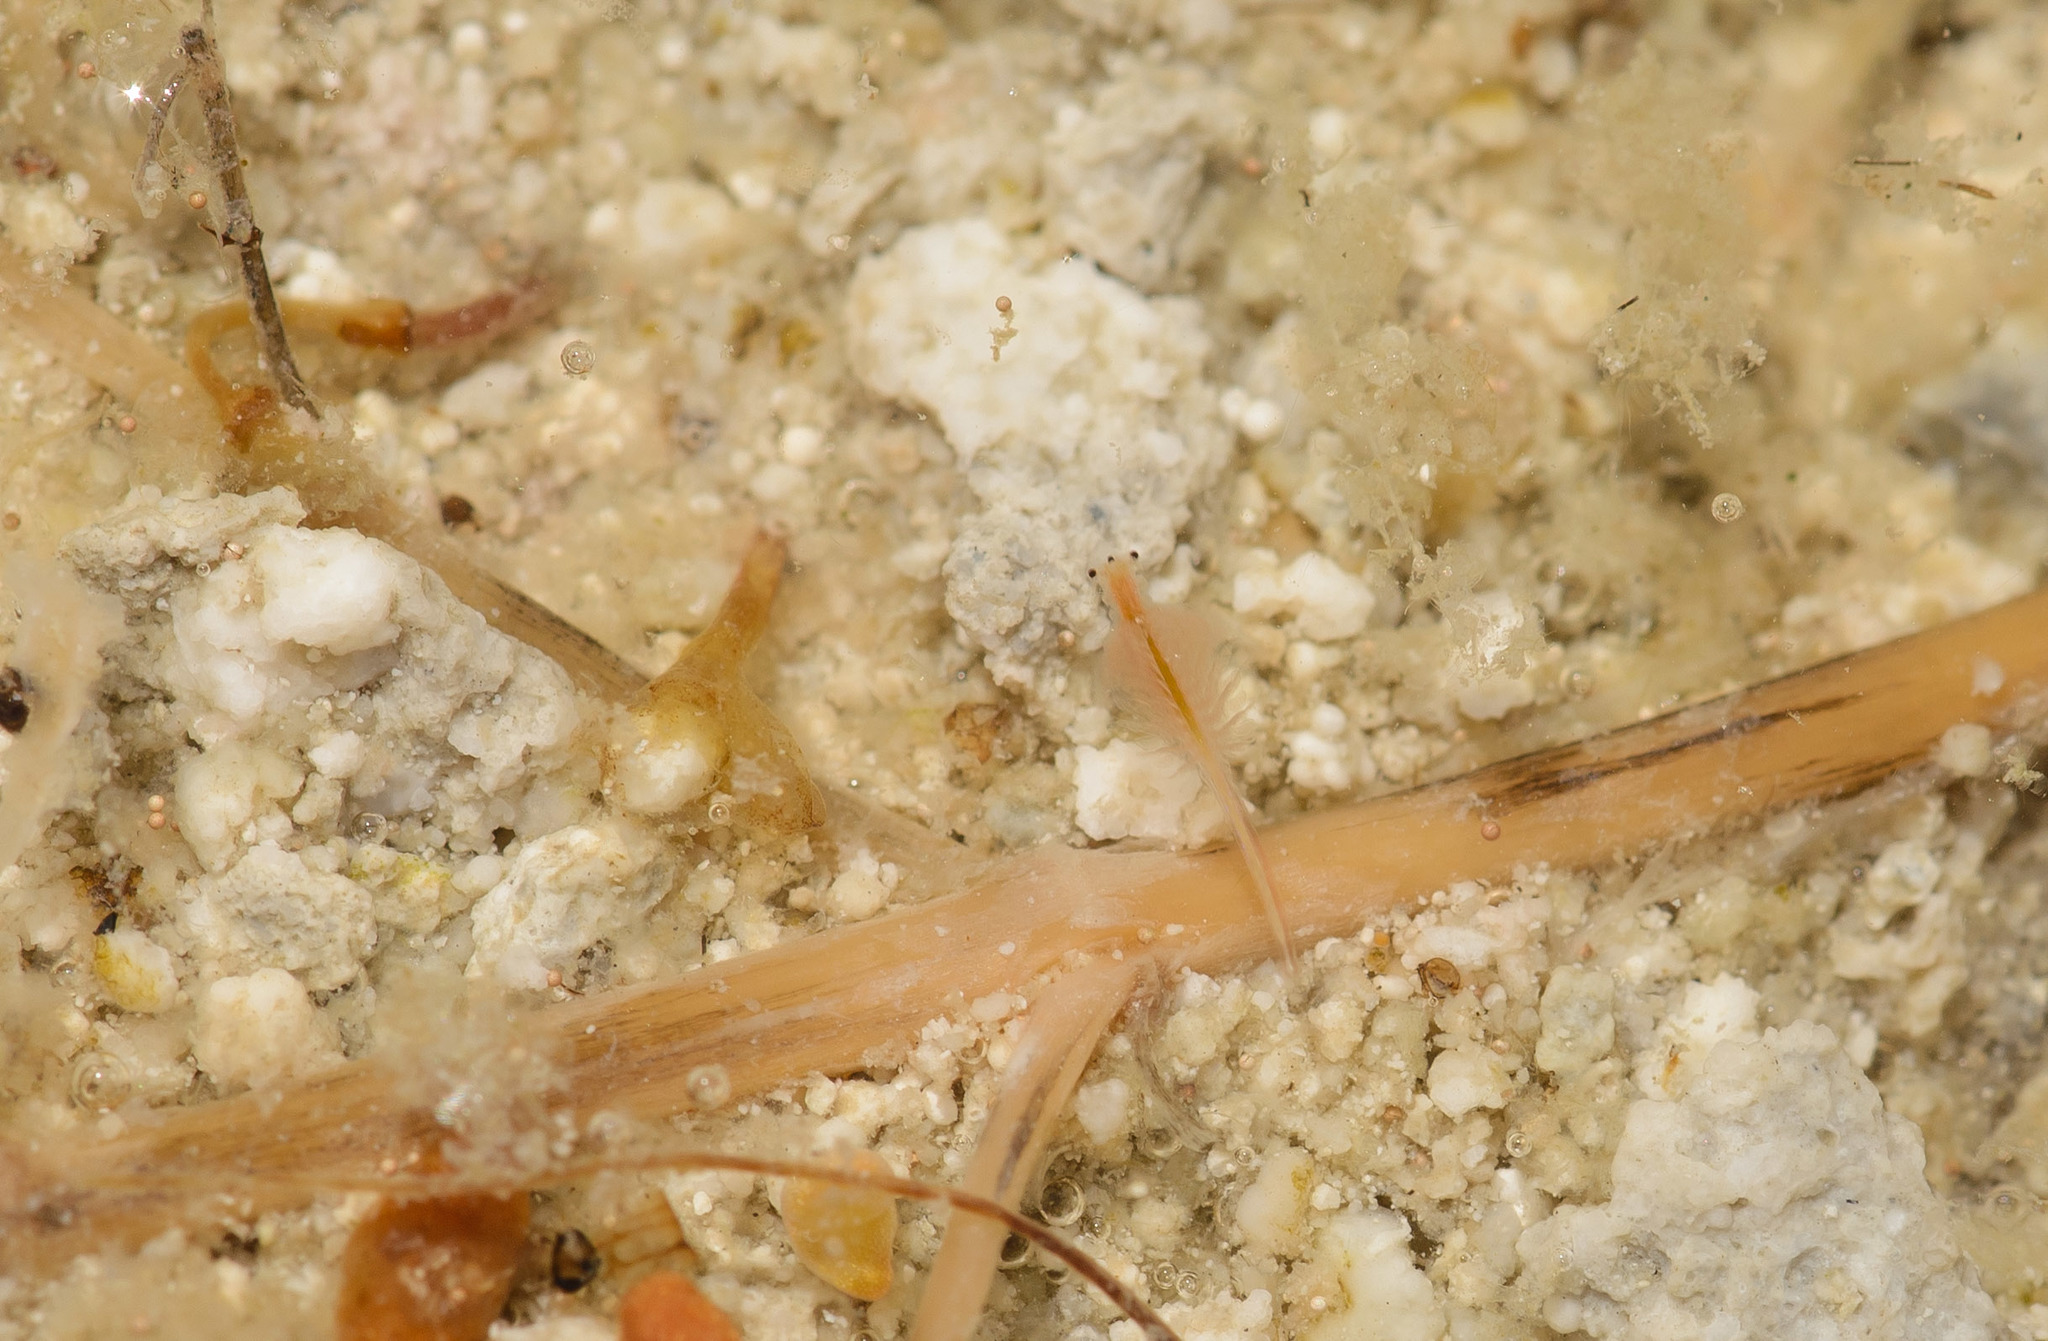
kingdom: Animalia
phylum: Arthropoda
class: Branchiopoda
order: Anostraca
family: Artemiidae
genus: Artemia
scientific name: Artemia monica
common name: Mono lake brine shrimp
